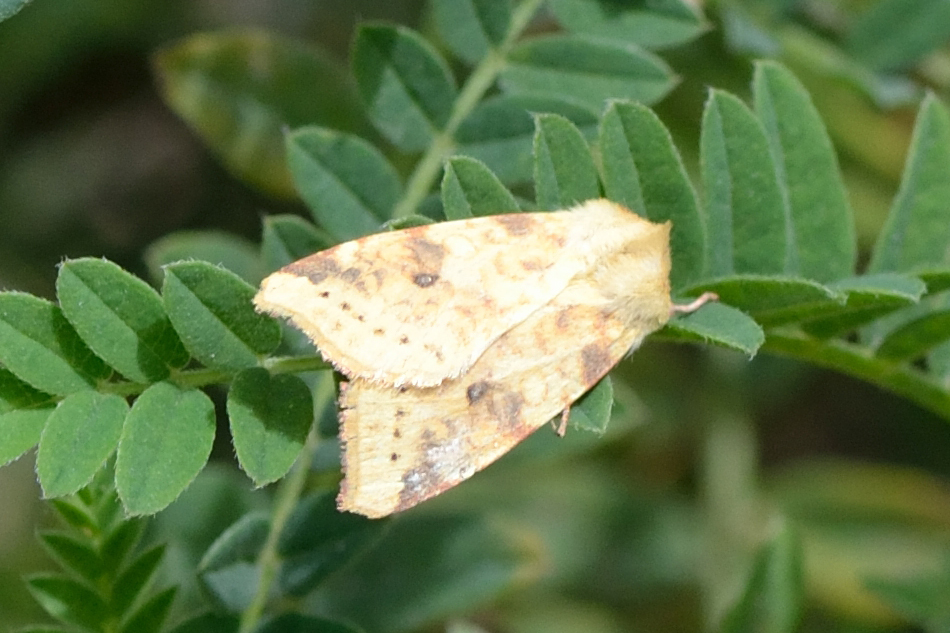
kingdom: Animalia
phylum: Arthropoda
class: Insecta
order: Lepidoptera
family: Noctuidae
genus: Xanthia
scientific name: Xanthia icteritia
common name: The sallow
